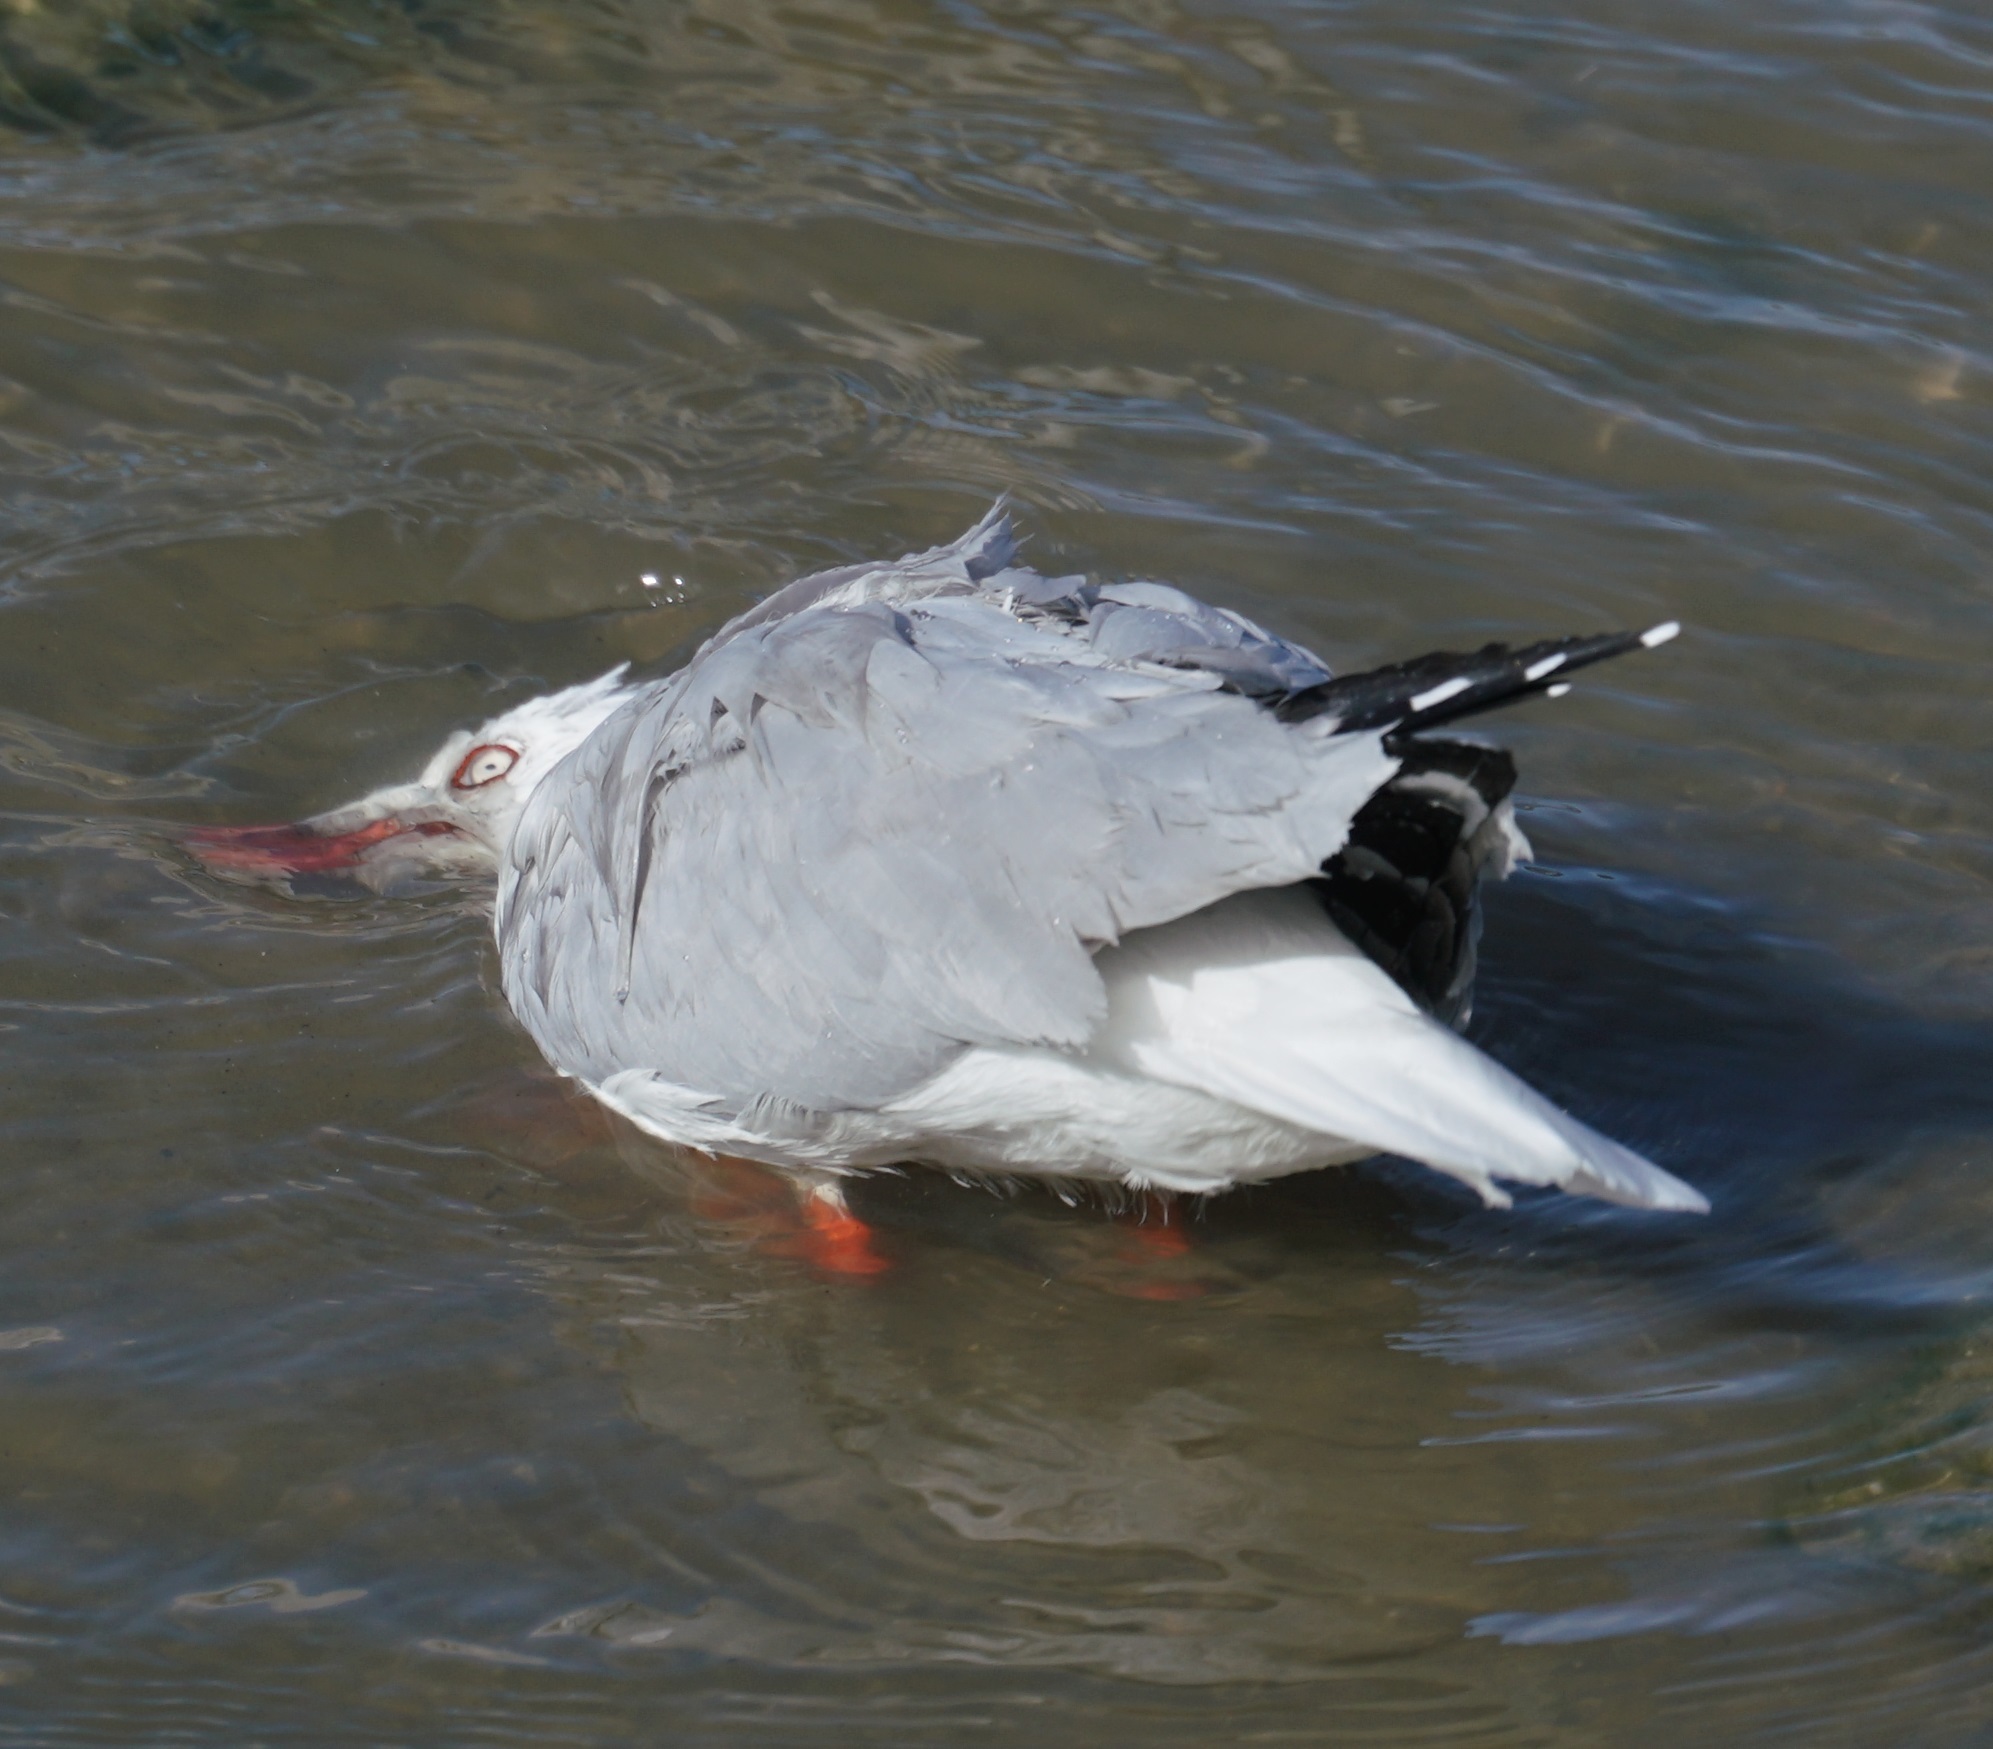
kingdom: Animalia
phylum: Chordata
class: Aves
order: Charadriiformes
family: Laridae
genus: Chroicocephalus
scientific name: Chroicocephalus novaehollandiae
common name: Silver gull
